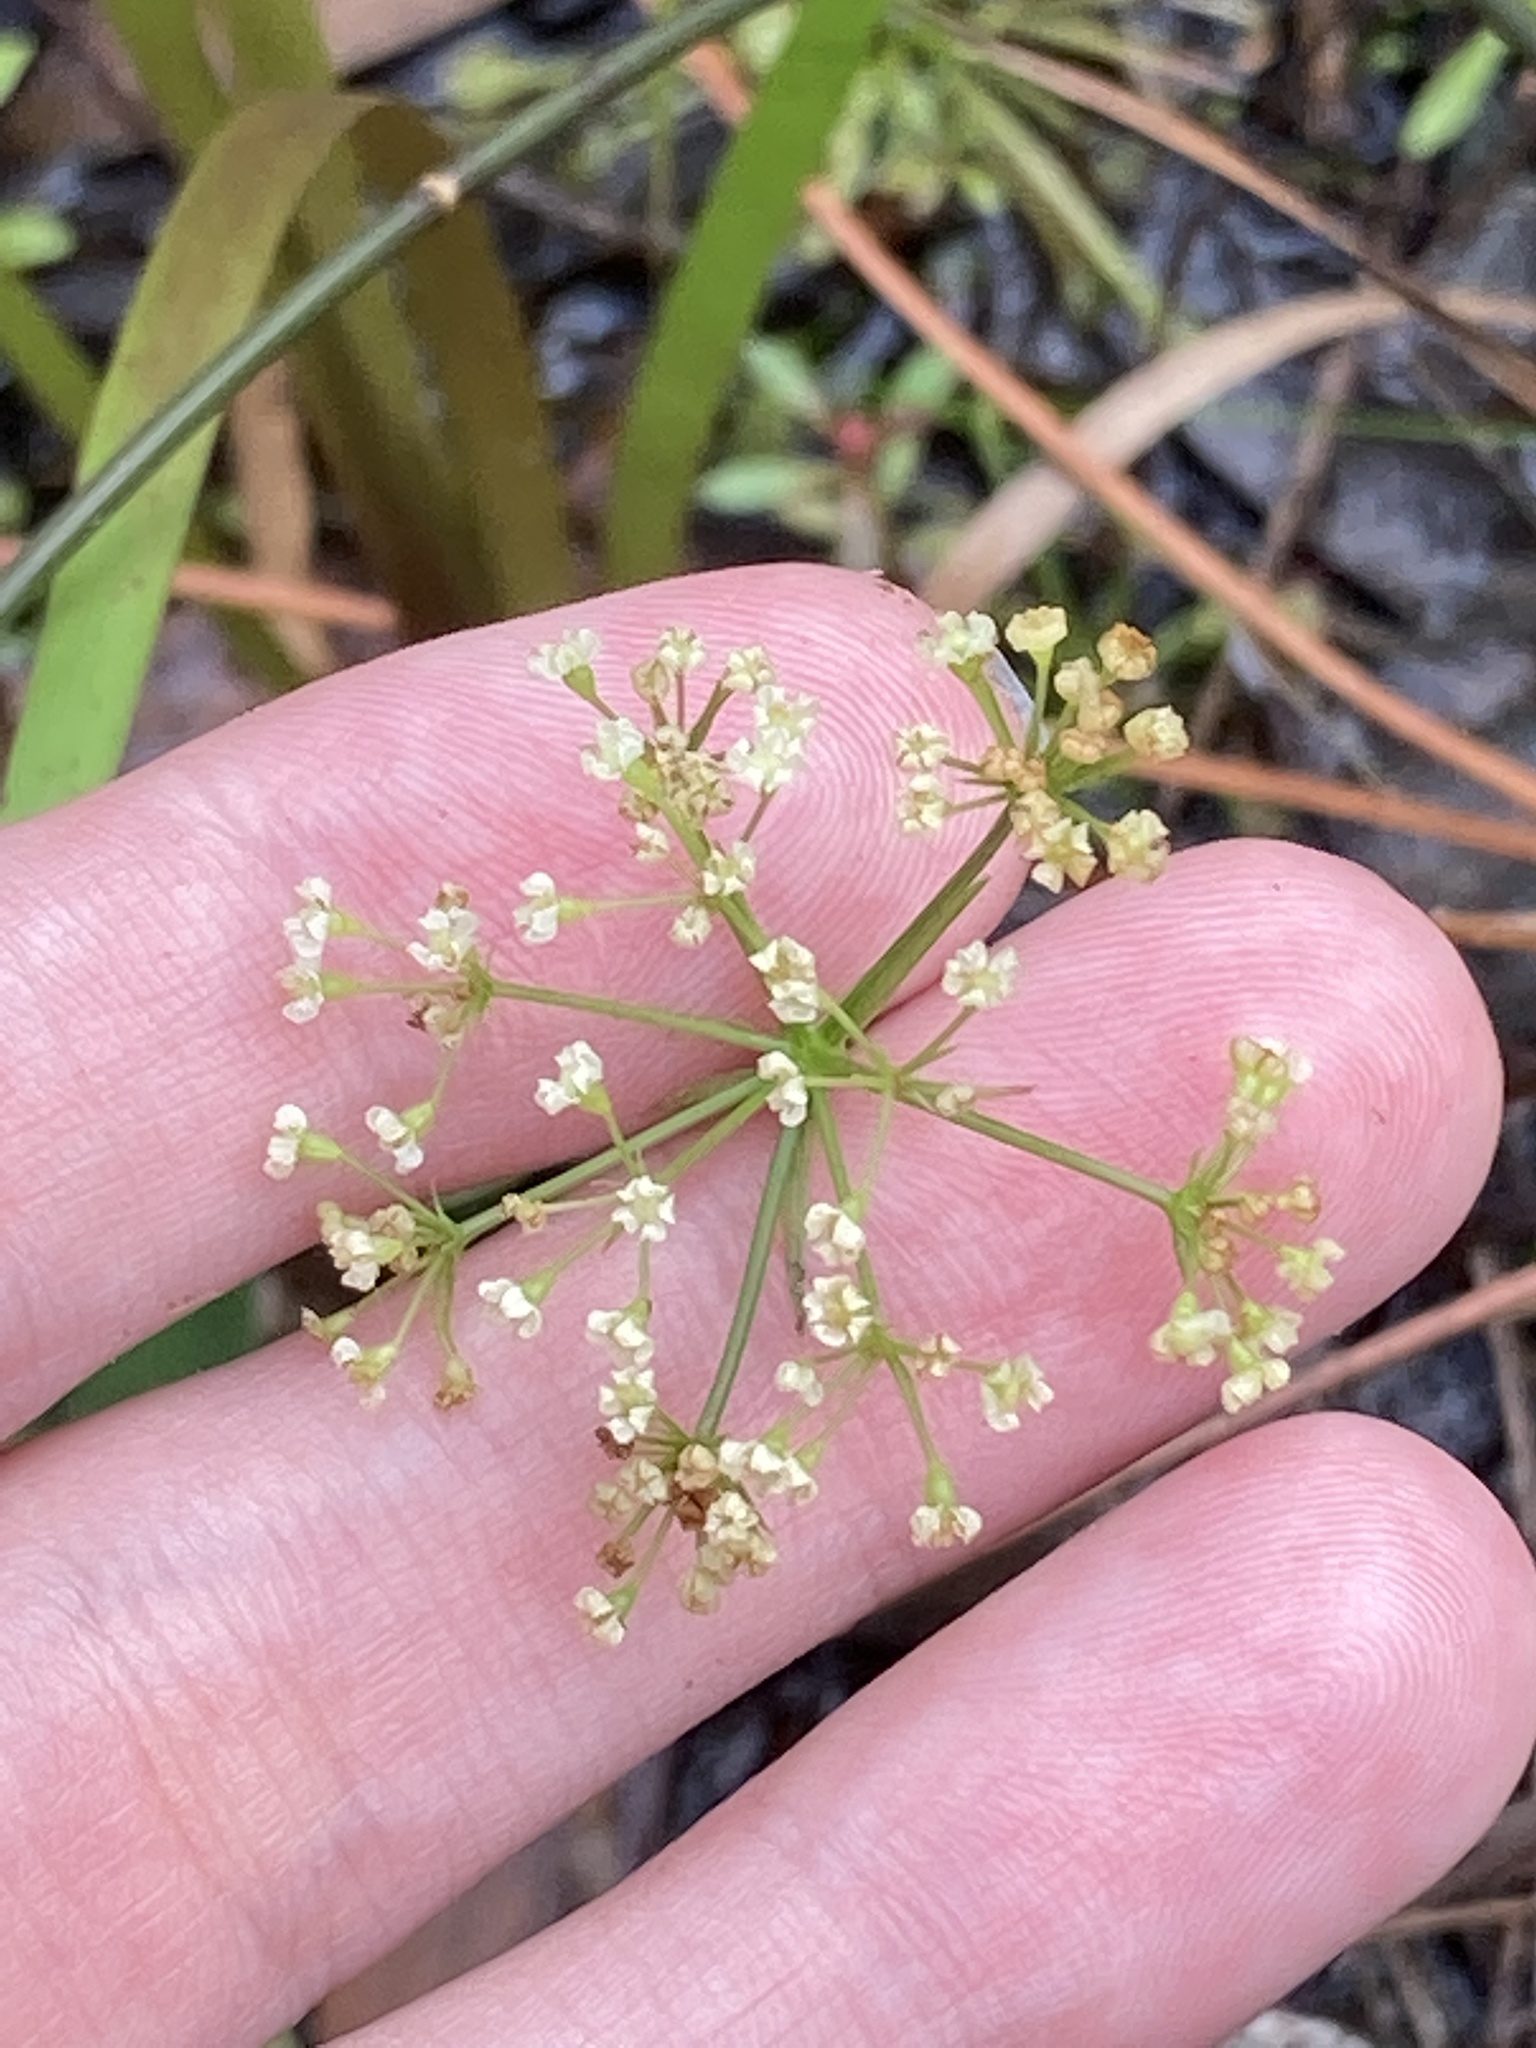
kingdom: Plantae
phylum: Tracheophyta
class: Magnoliopsida
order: Apiales
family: Apiaceae
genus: Tiedemannia
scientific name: Tiedemannia filiformis
